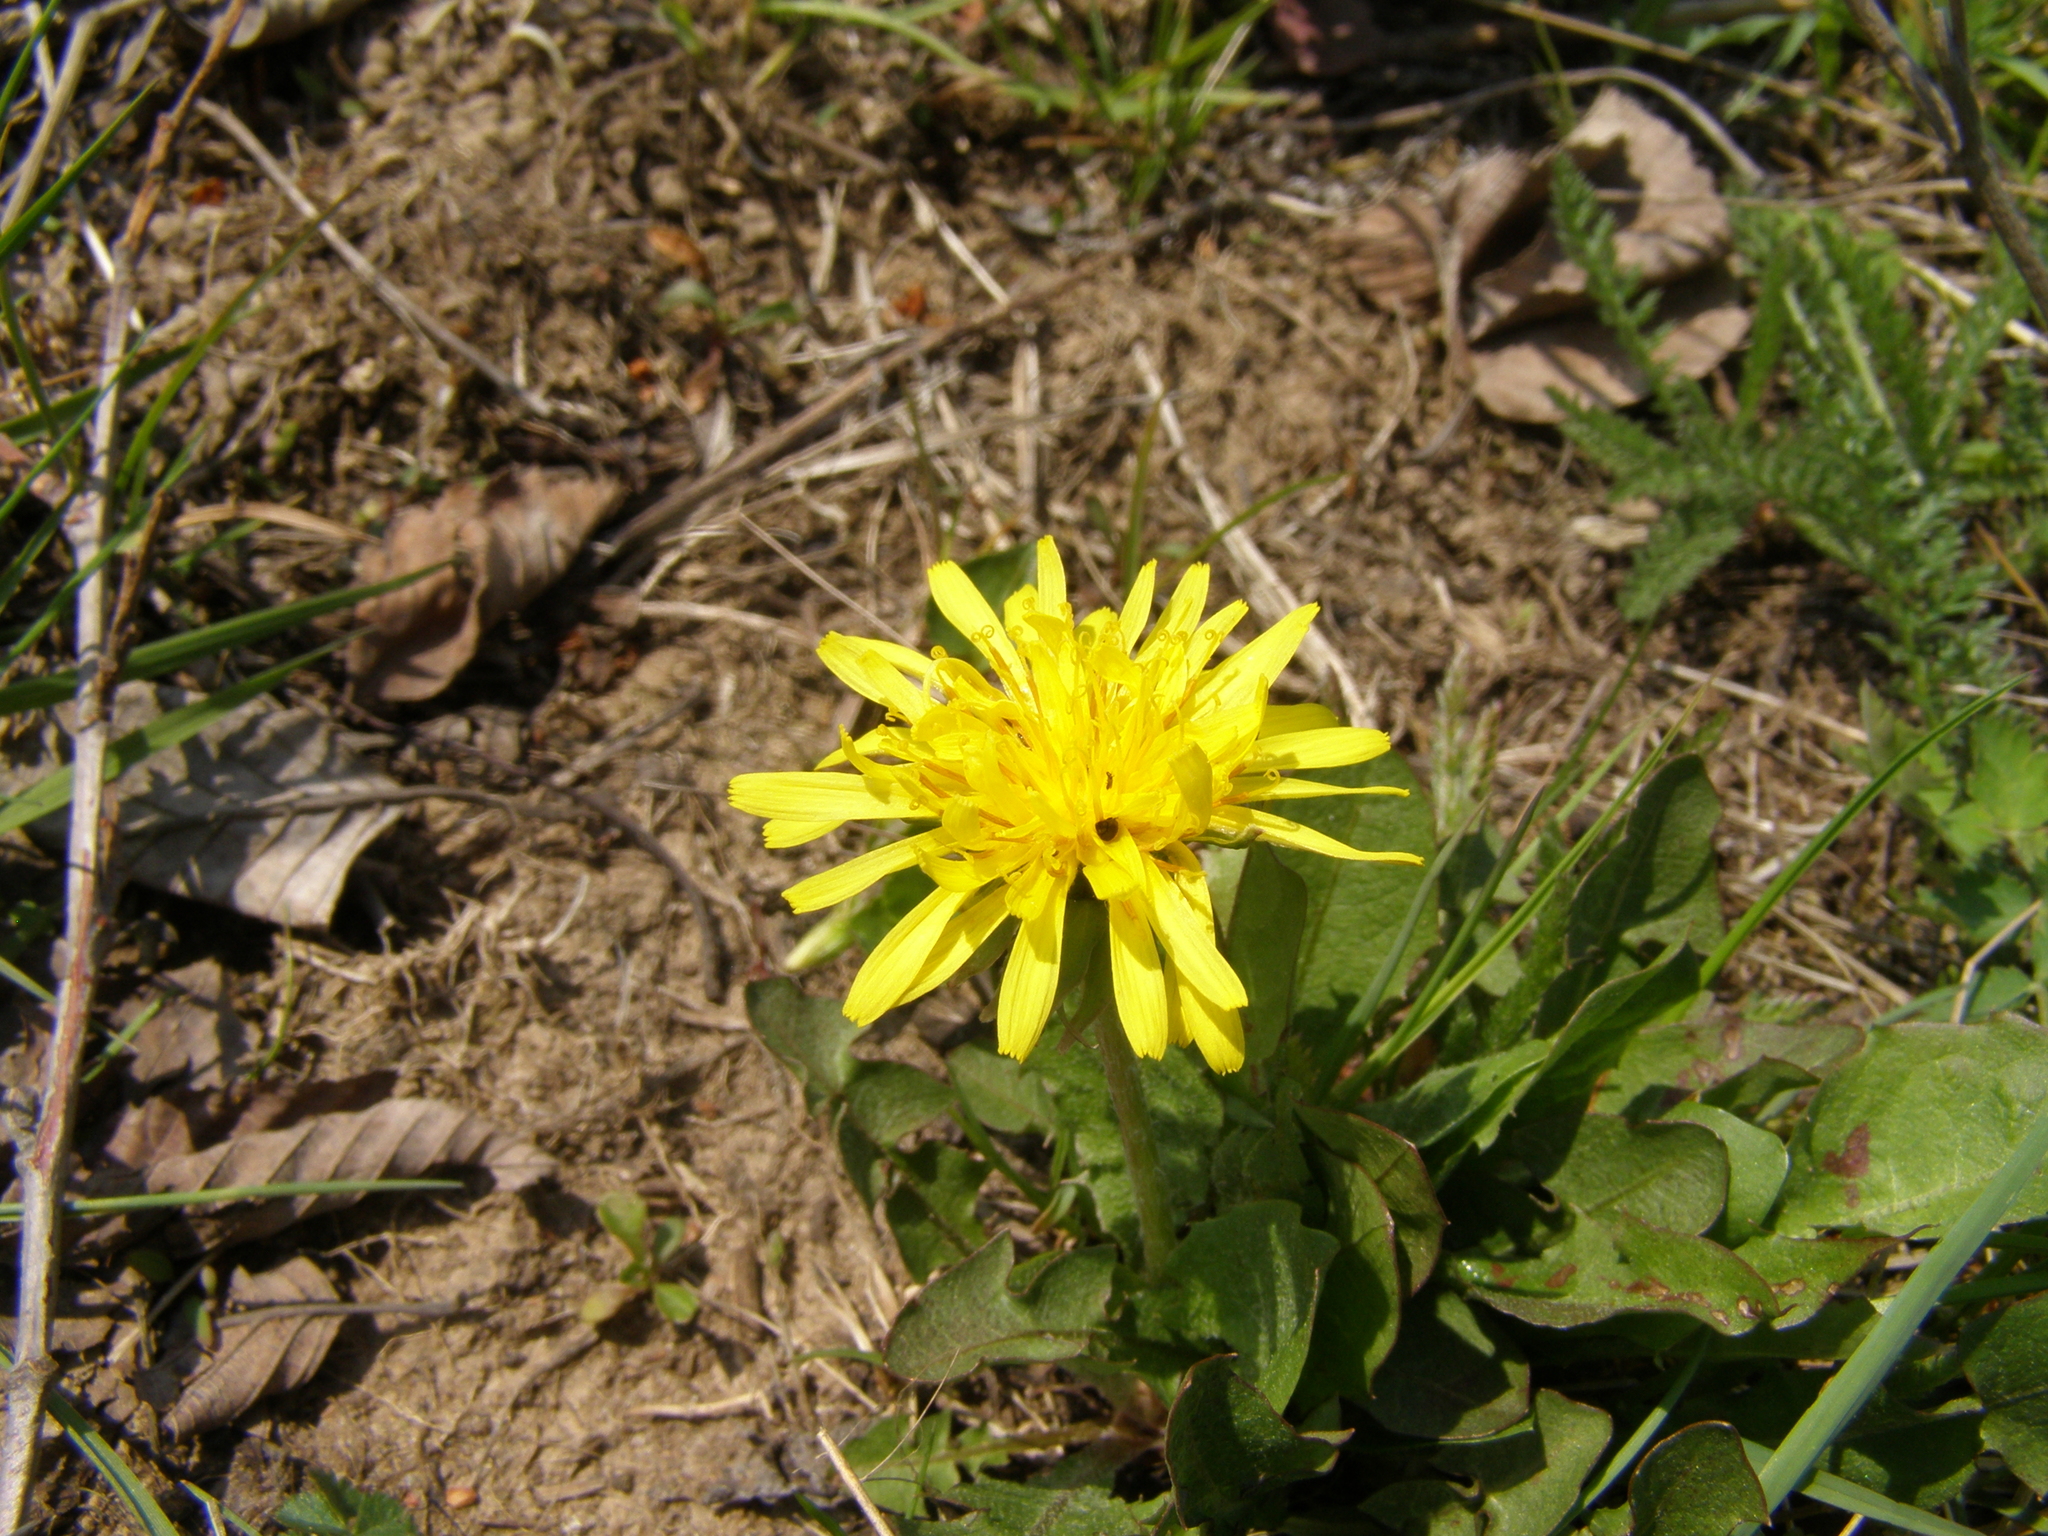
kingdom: Plantae
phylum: Tracheophyta
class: Magnoliopsida
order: Asterales
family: Asteraceae
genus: Taraxacum
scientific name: Taraxacum officinale
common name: Common dandelion
